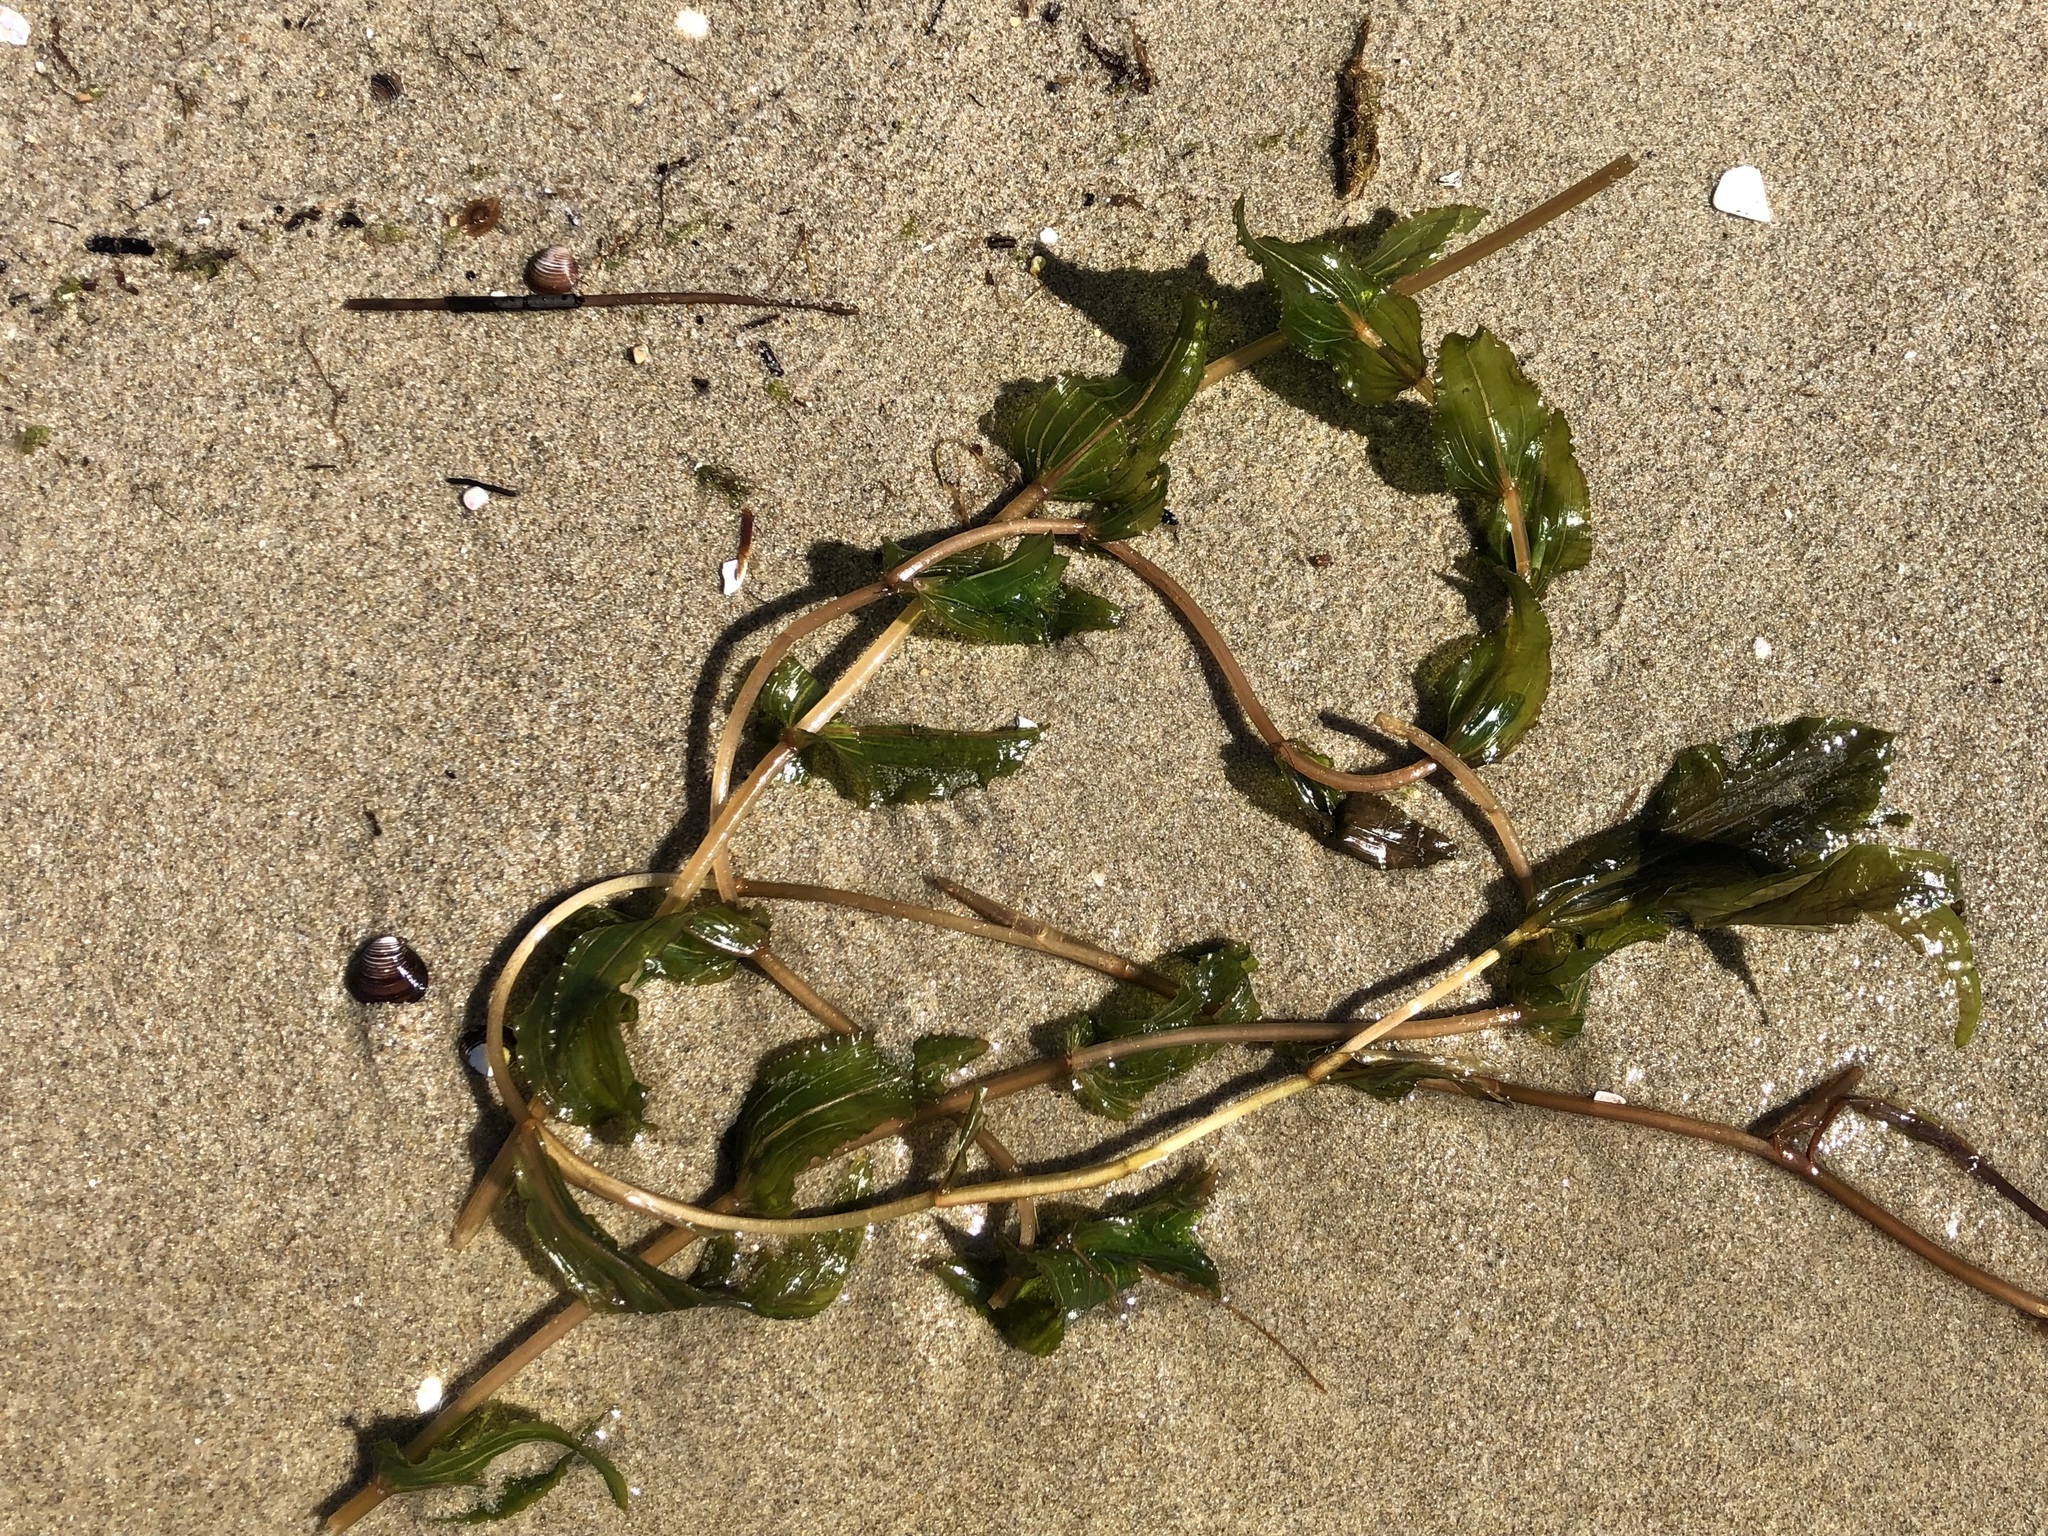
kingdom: Plantae
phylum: Tracheophyta
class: Liliopsida
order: Alismatales
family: Potamogetonaceae
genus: Potamogeton
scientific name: Potamogeton perfoliatus
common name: Perfoliate pondweed
